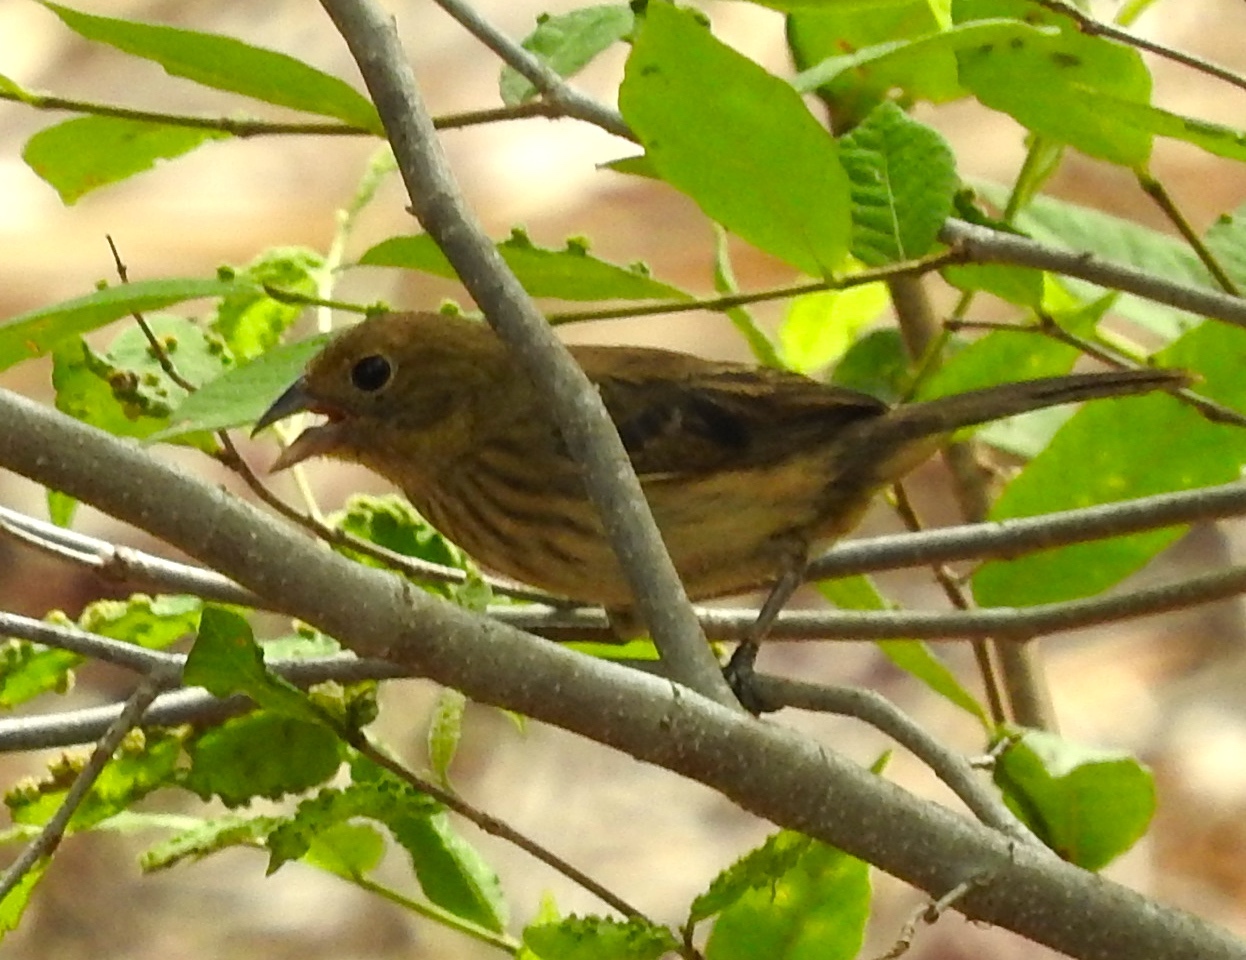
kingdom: Animalia
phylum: Chordata
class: Aves
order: Passeriformes
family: Thraupidae
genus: Volatinia
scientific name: Volatinia jacarina
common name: Blue-black grassquit
